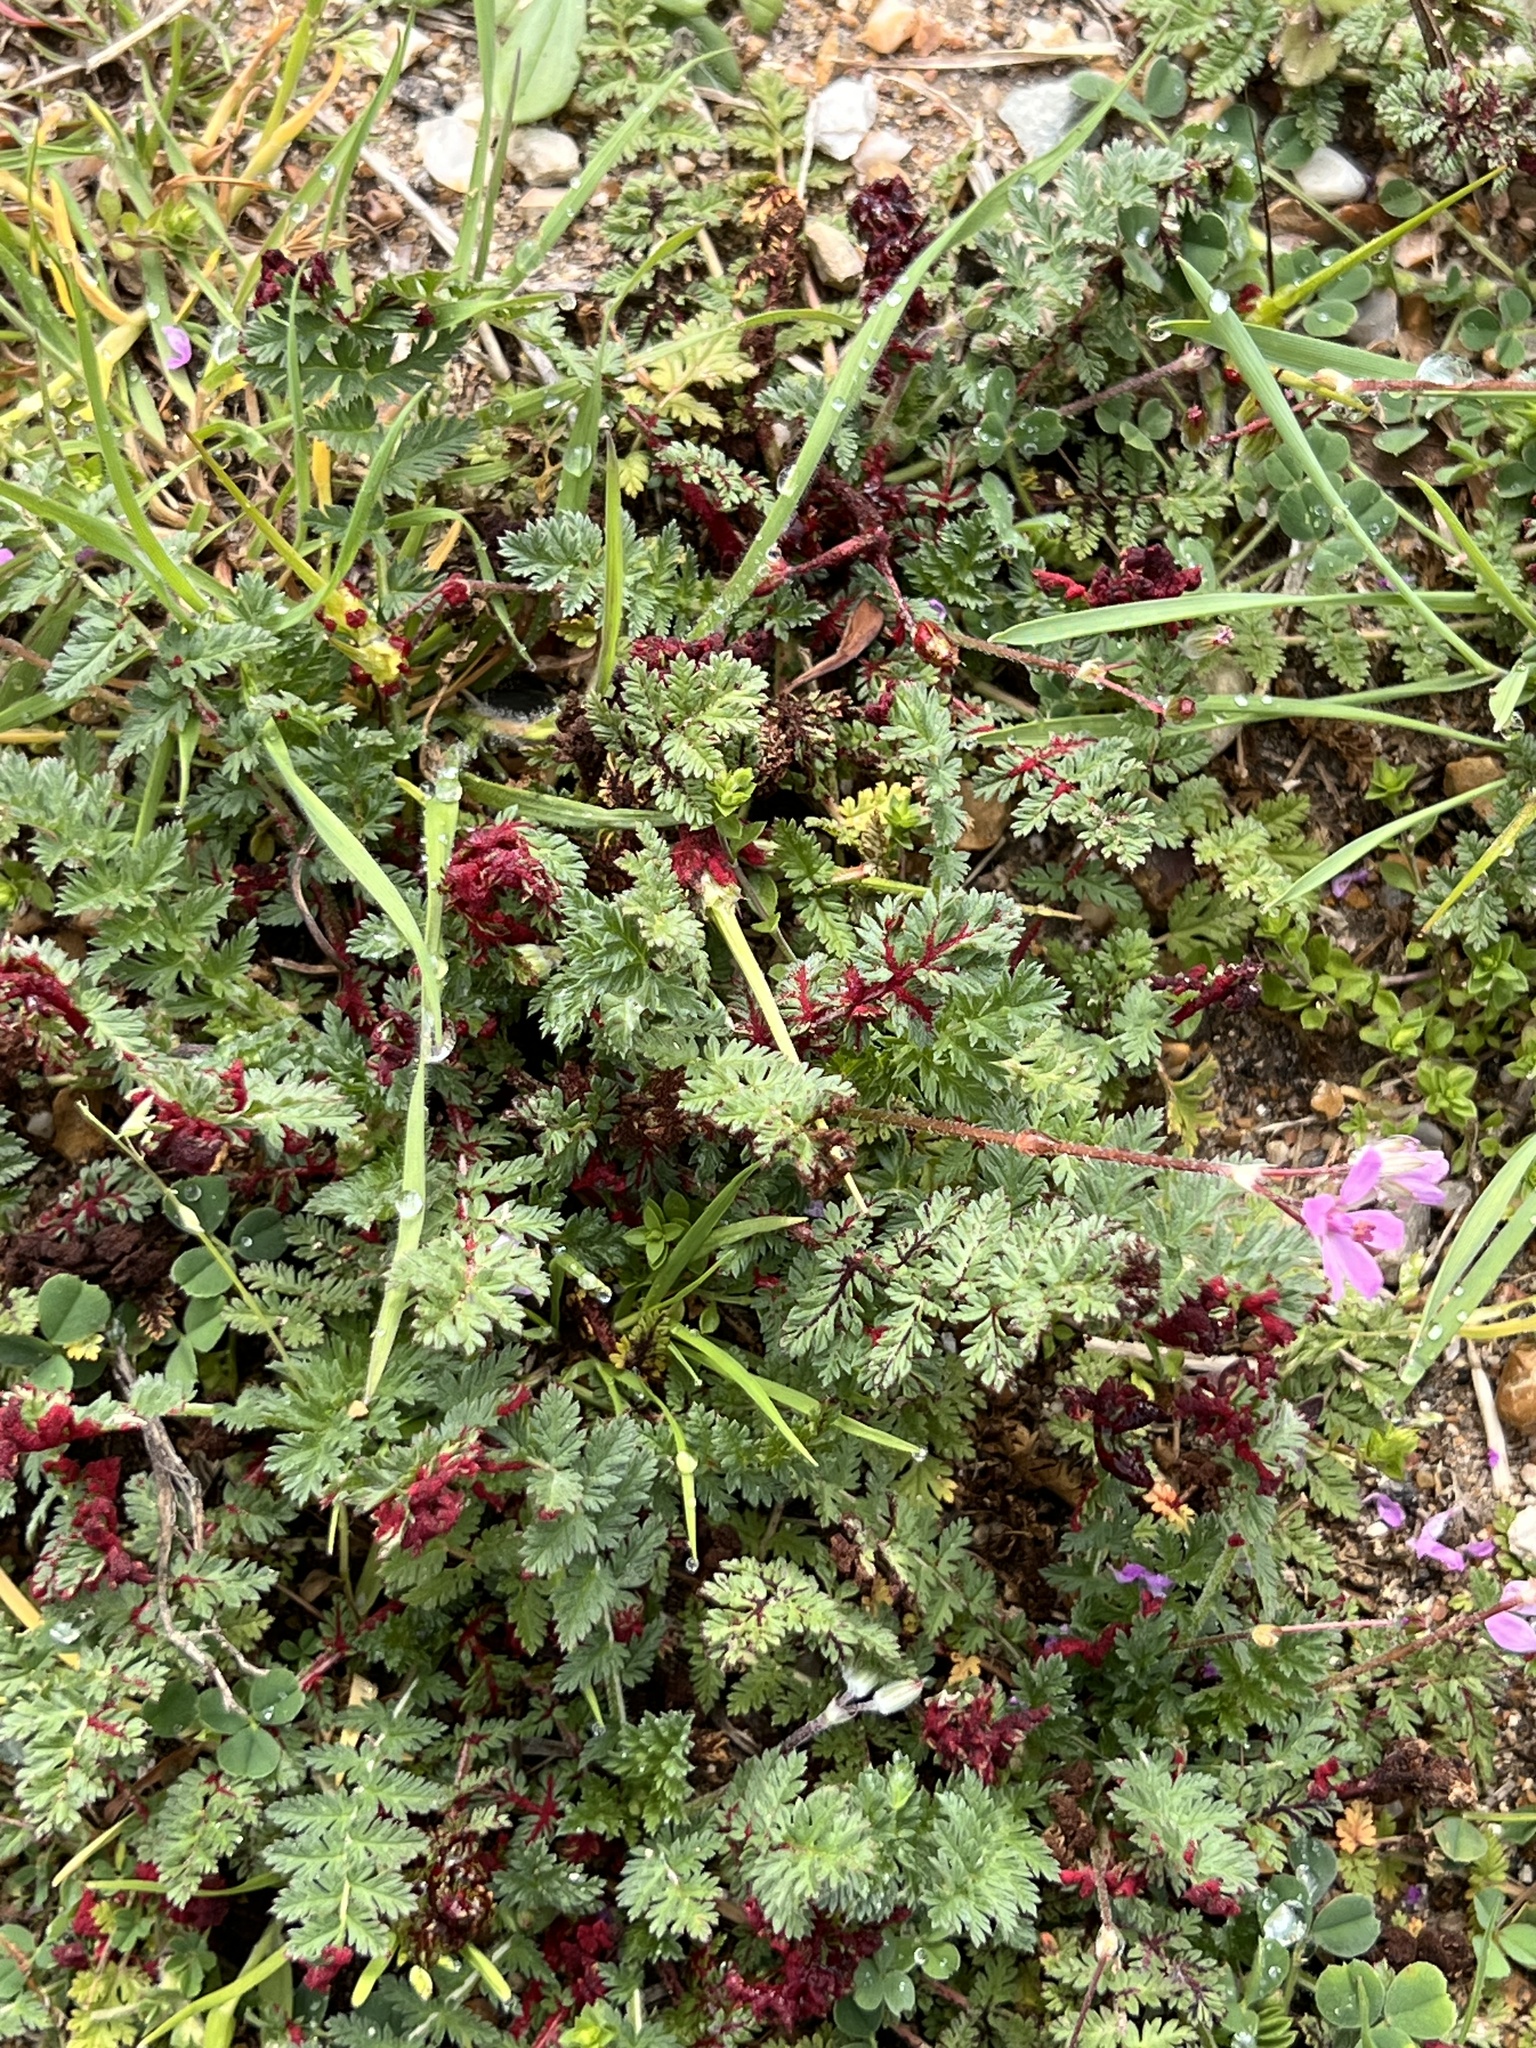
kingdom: Plantae
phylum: Tracheophyta
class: Magnoliopsida
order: Geraniales
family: Geraniaceae
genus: Erodium
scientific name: Erodium cicutarium
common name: Common stork's-bill
